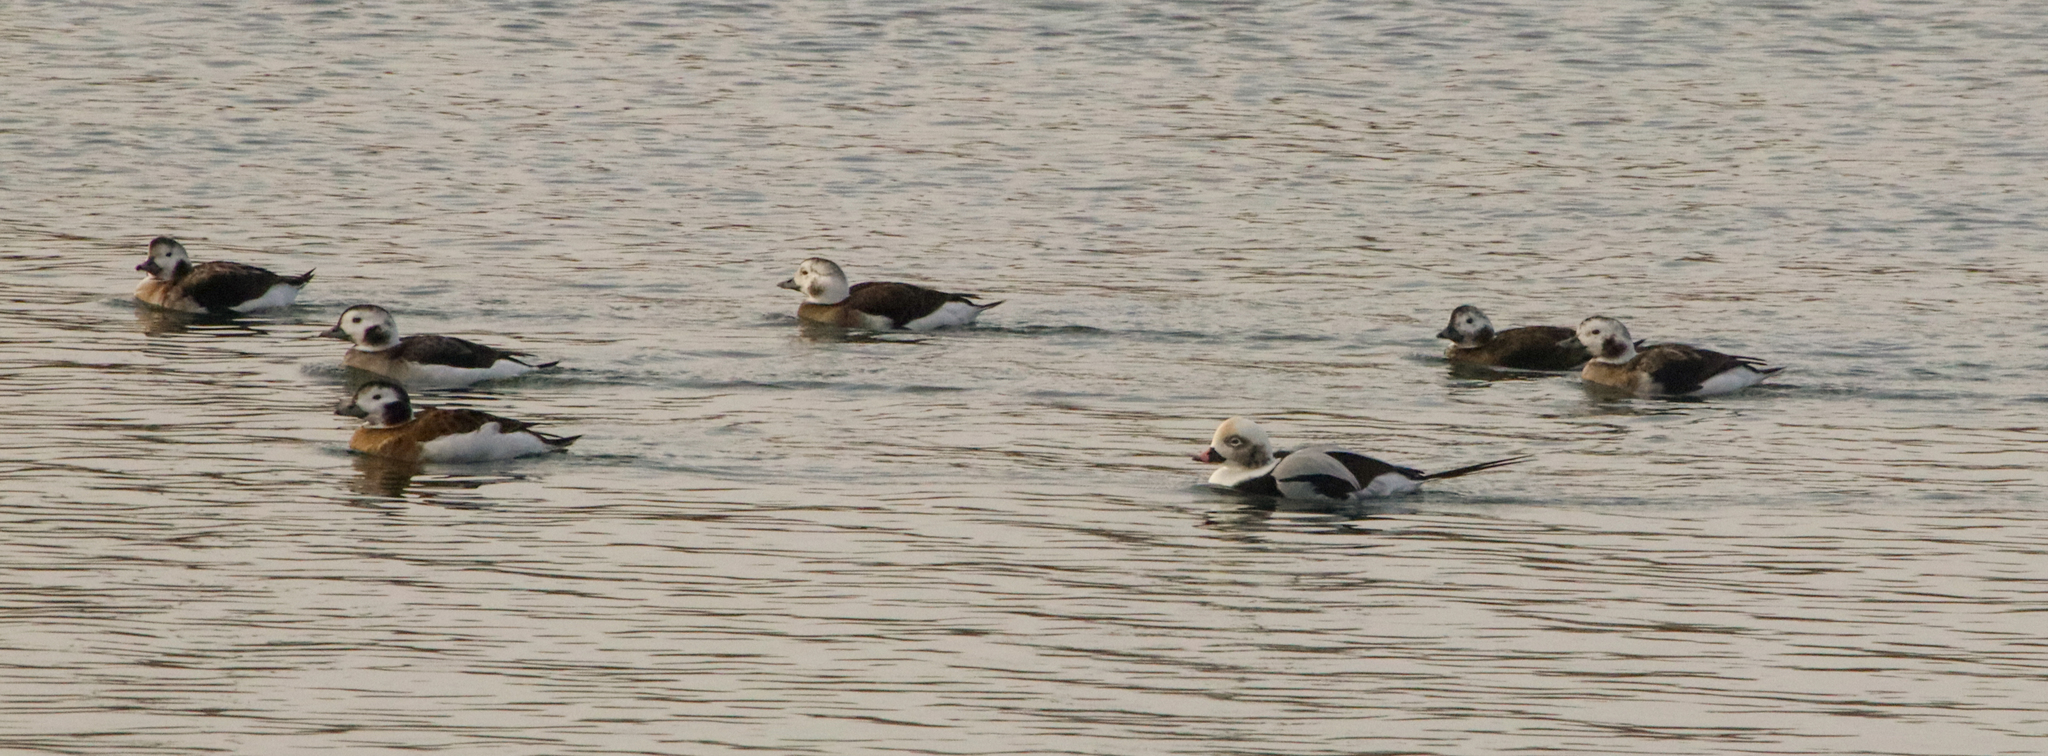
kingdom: Animalia
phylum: Chordata
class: Aves
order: Anseriformes
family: Anatidae
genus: Clangula
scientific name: Clangula hyemalis
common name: Long-tailed duck
